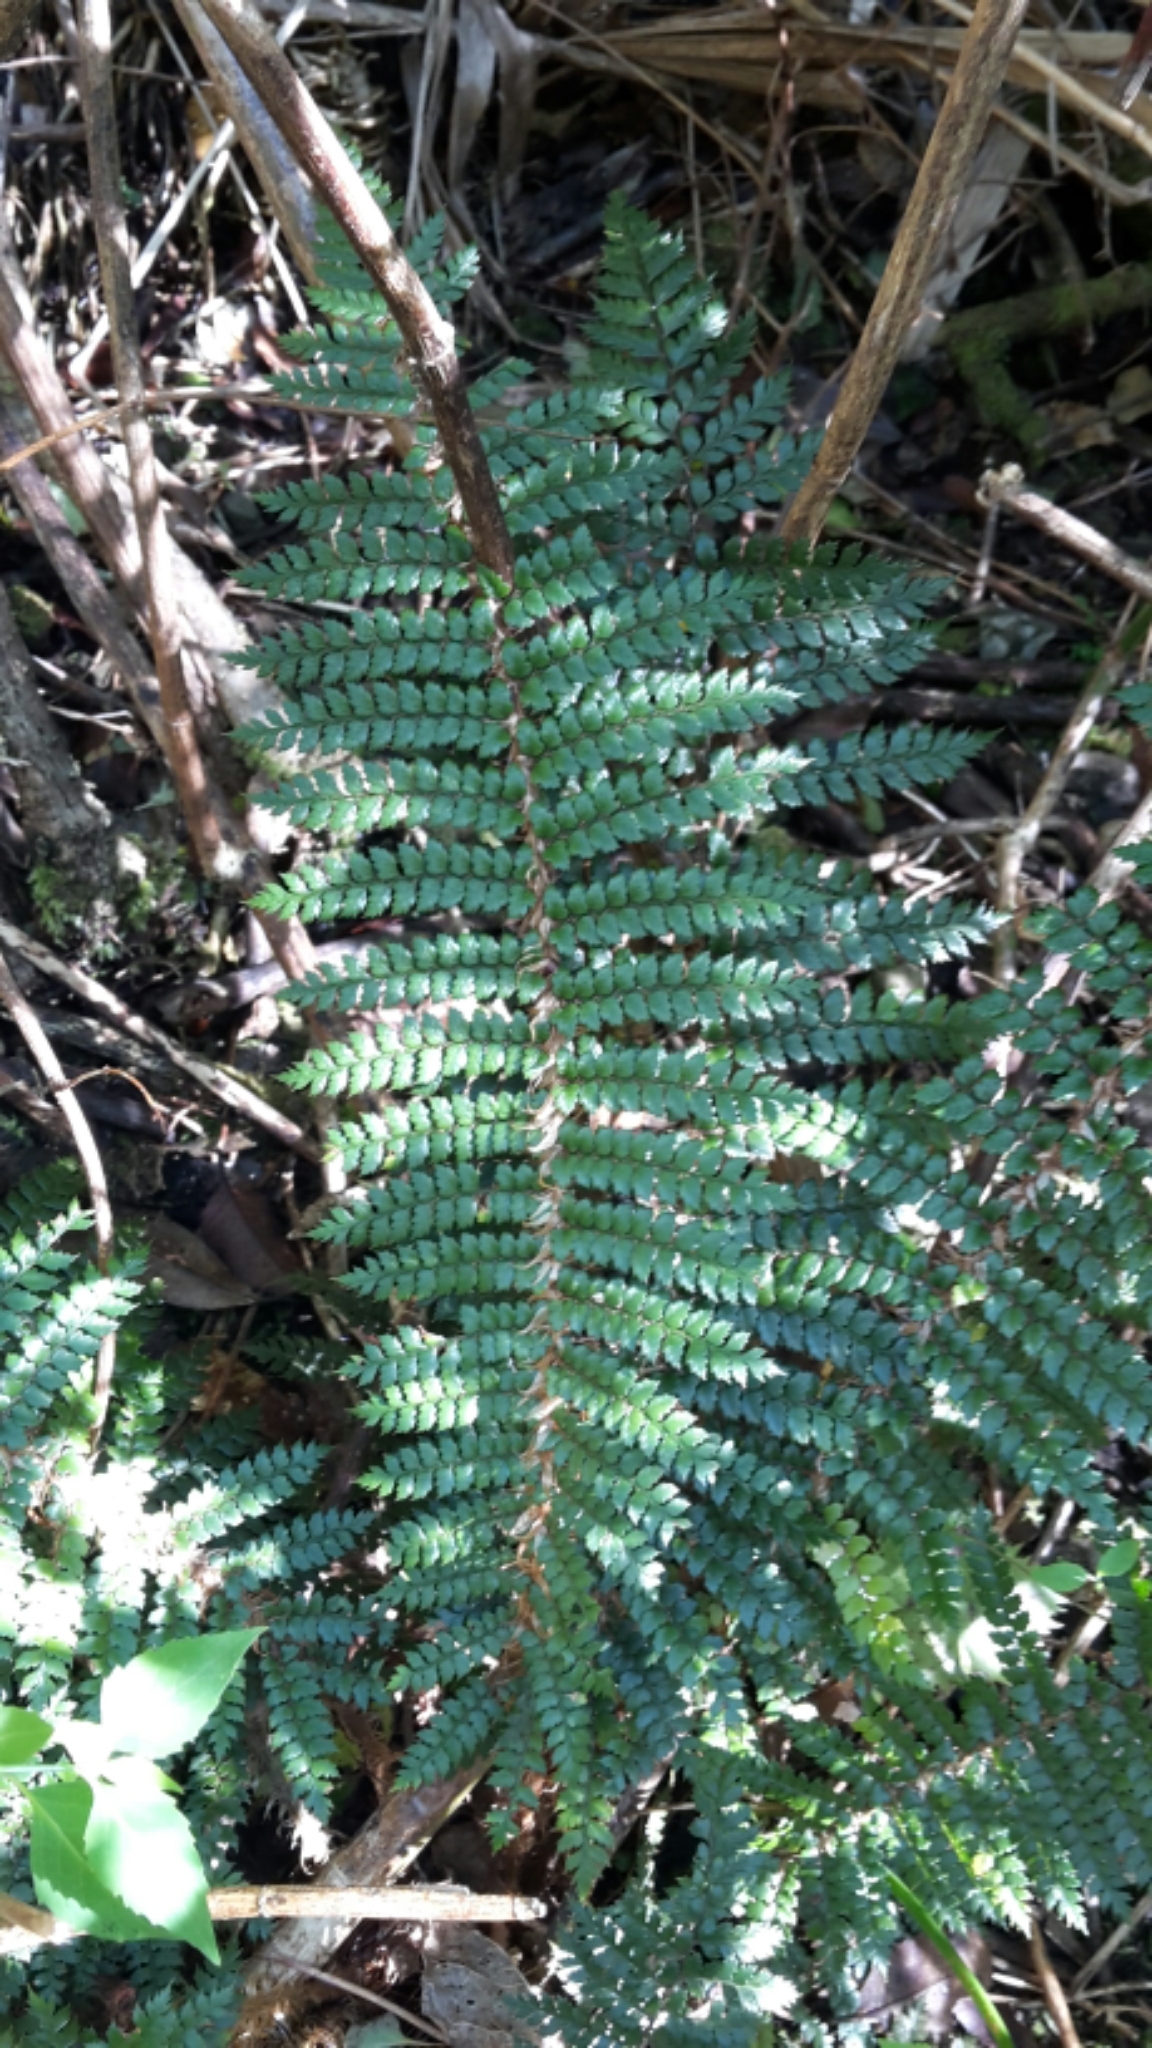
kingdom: Plantae
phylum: Tracheophyta
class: Polypodiopsida
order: Polypodiales
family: Dryopteridaceae
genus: Polystichum
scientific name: Polystichum vestitum
